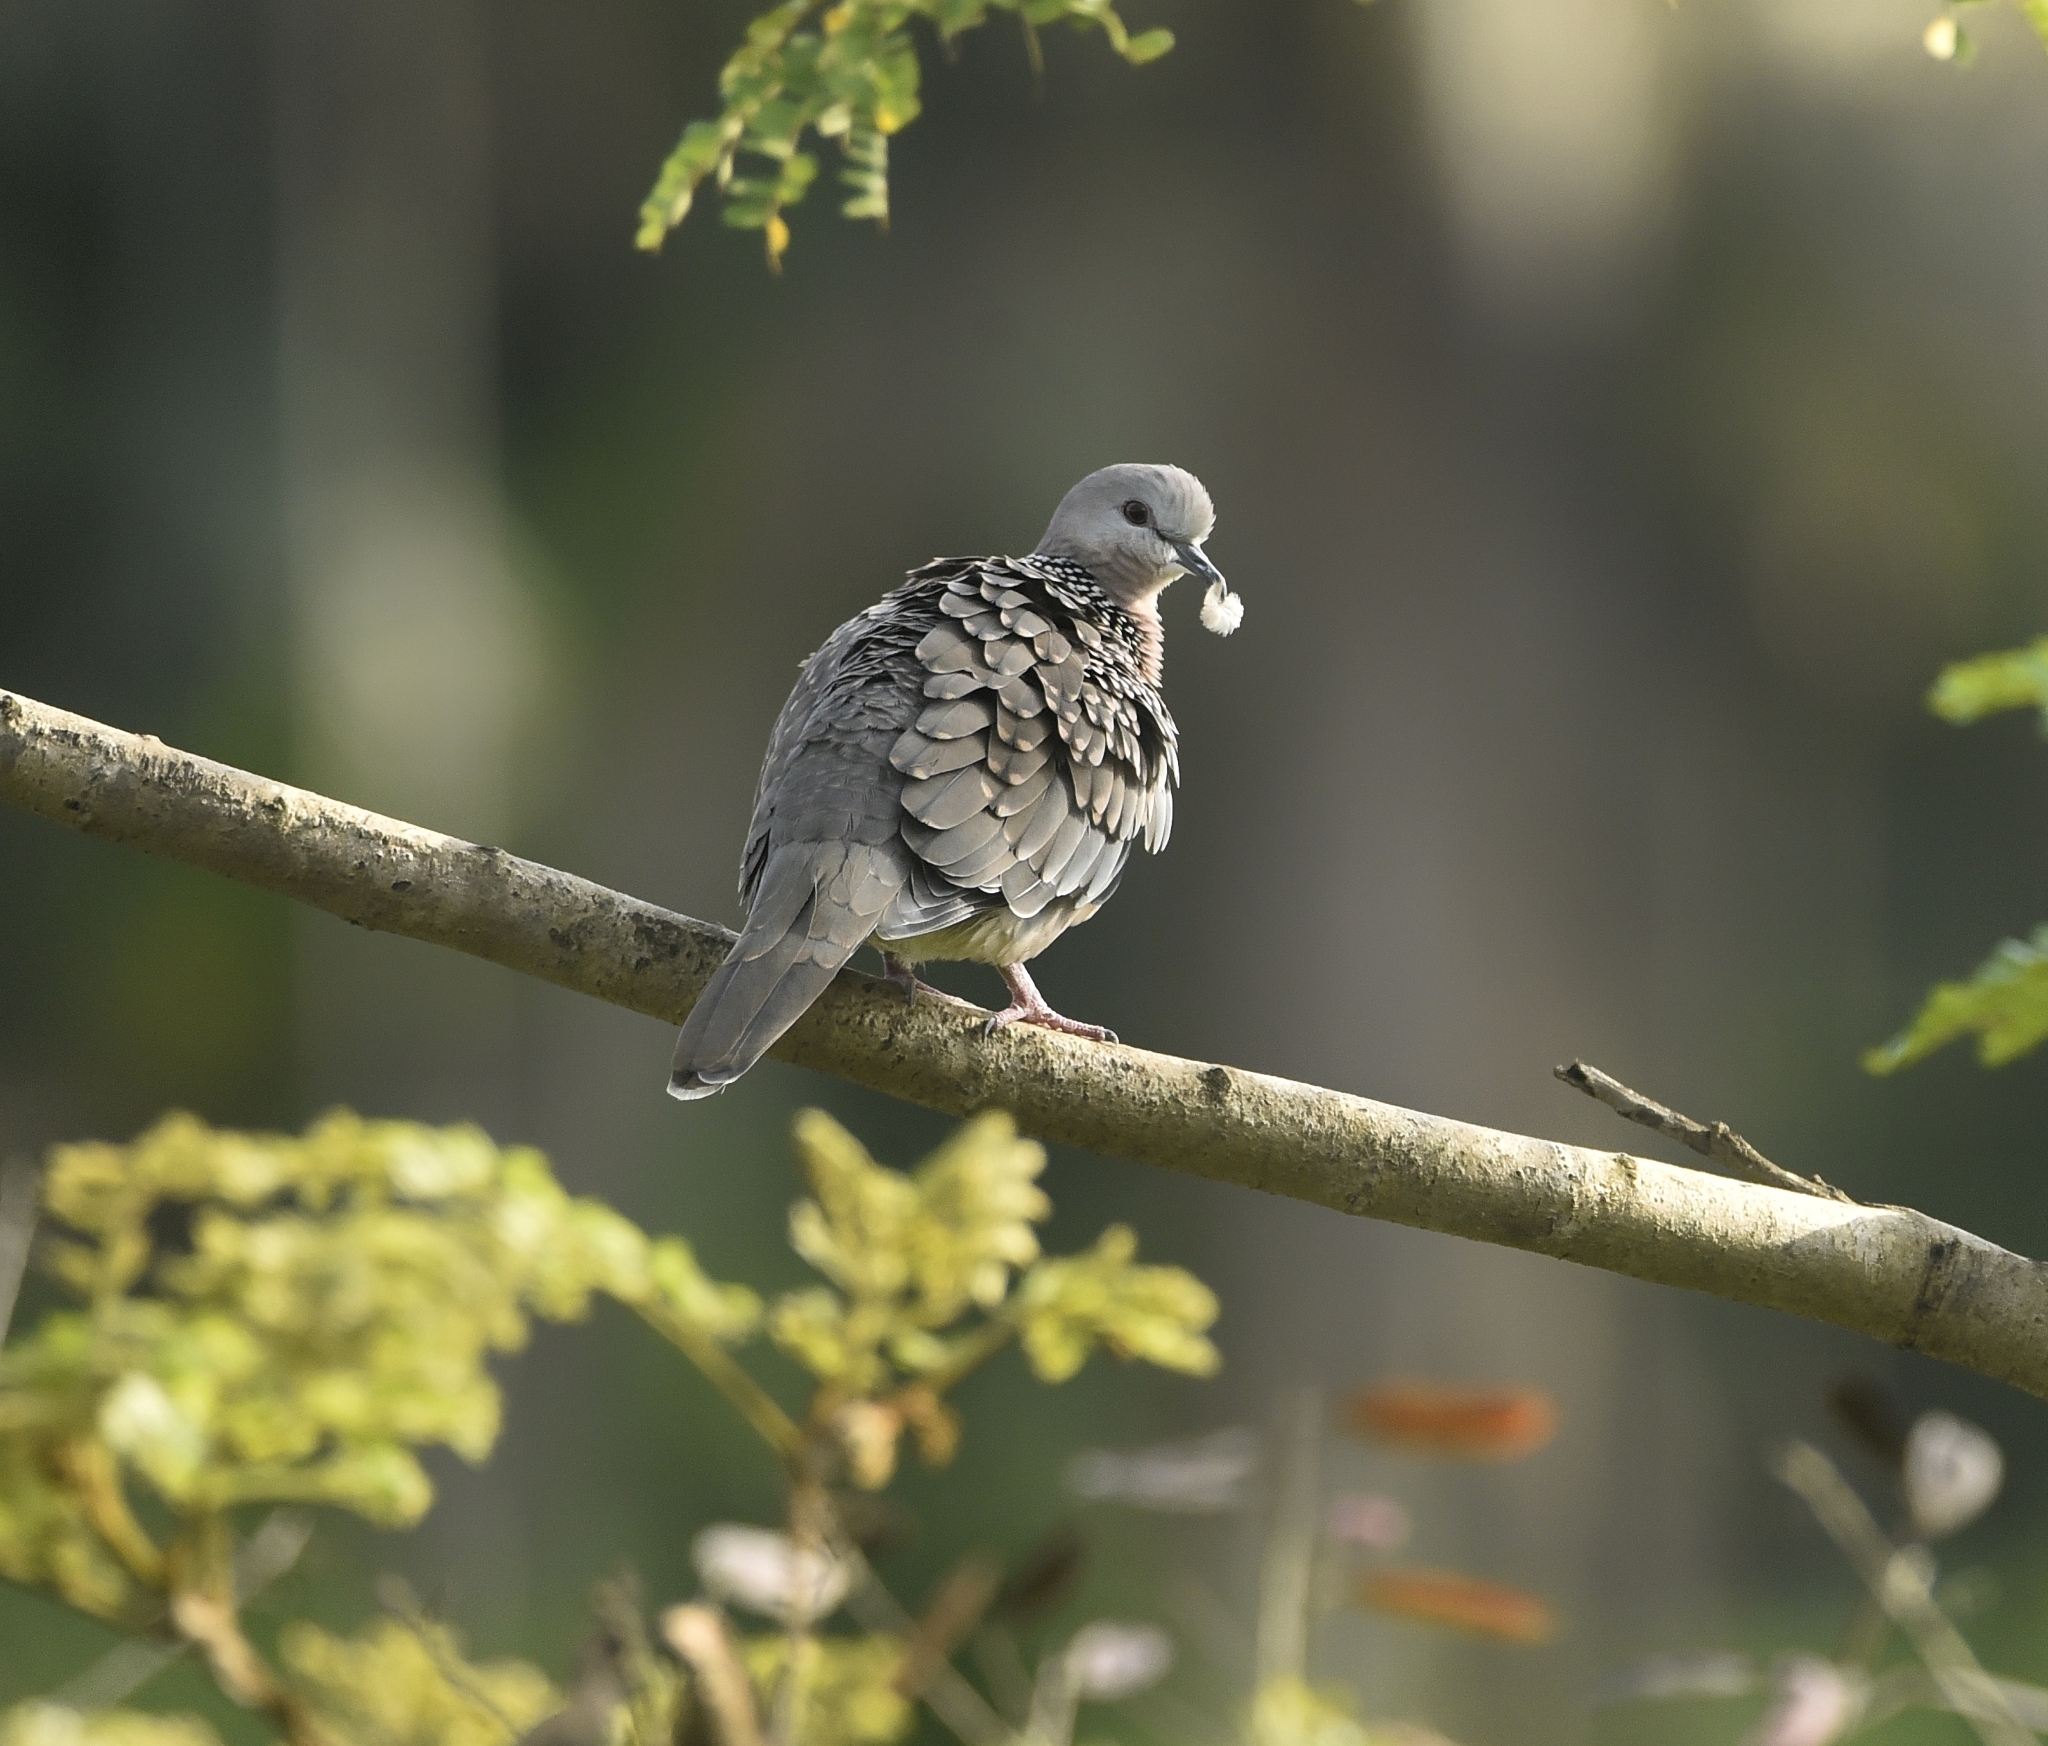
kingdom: Animalia
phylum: Chordata
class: Aves
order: Columbiformes
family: Columbidae
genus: Spilopelia
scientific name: Spilopelia chinensis
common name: Spotted dove
